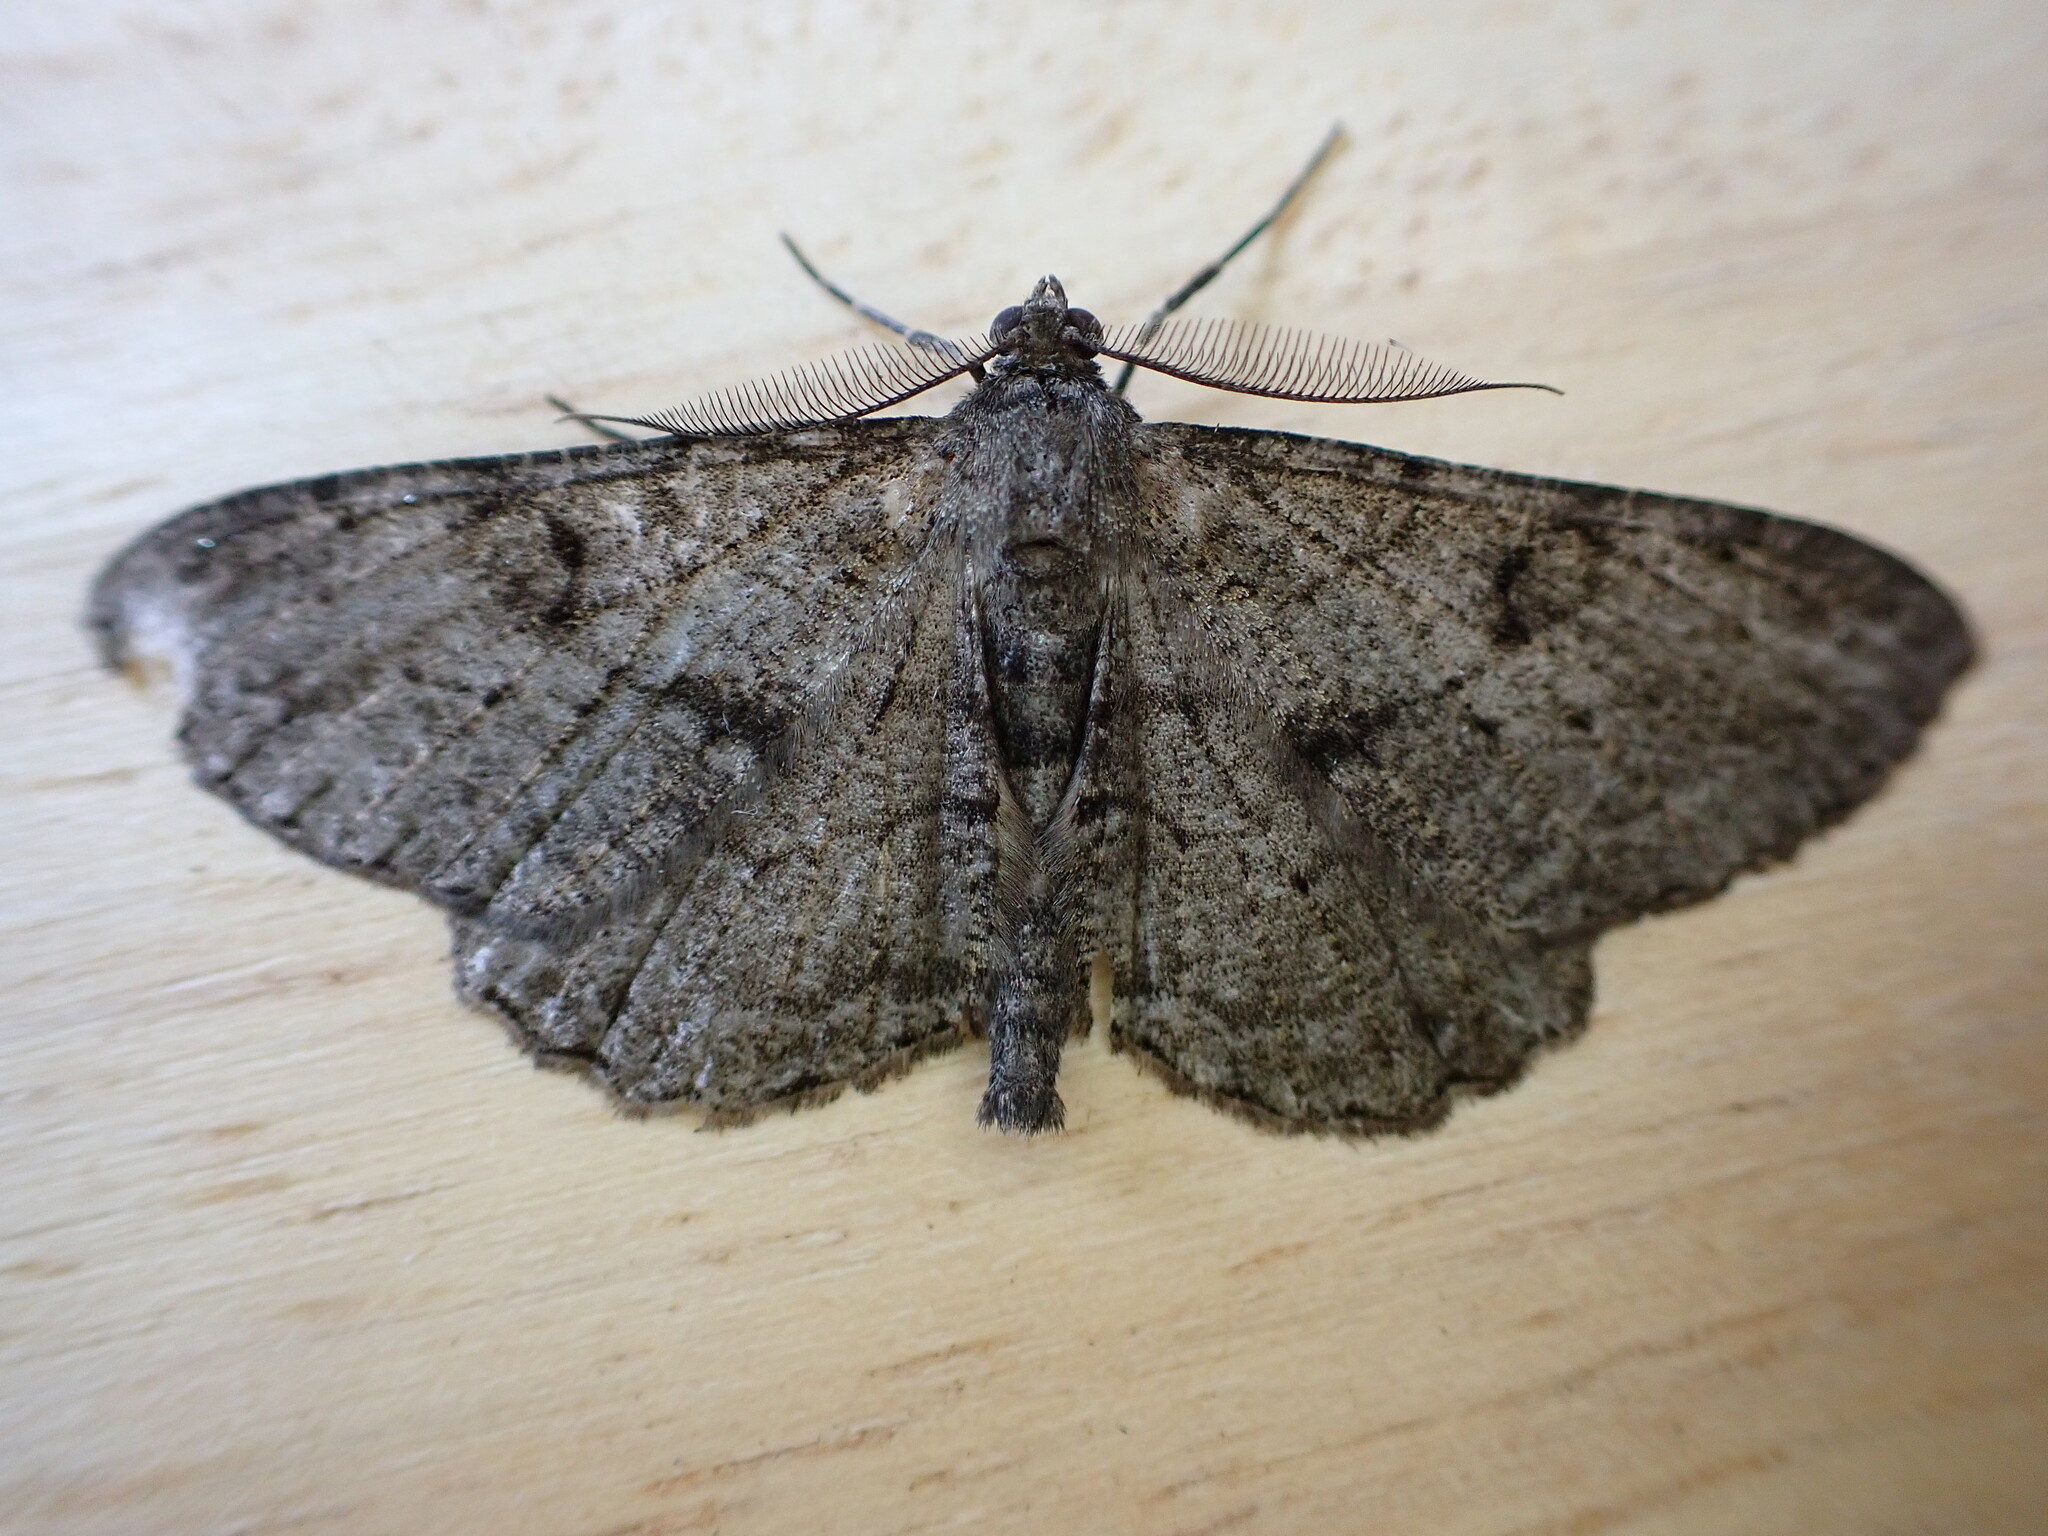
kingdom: Animalia
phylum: Arthropoda
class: Insecta
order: Lepidoptera
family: Geometridae
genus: Peribatodes
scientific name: Peribatodes rhomboidaria
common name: Willow beauty
